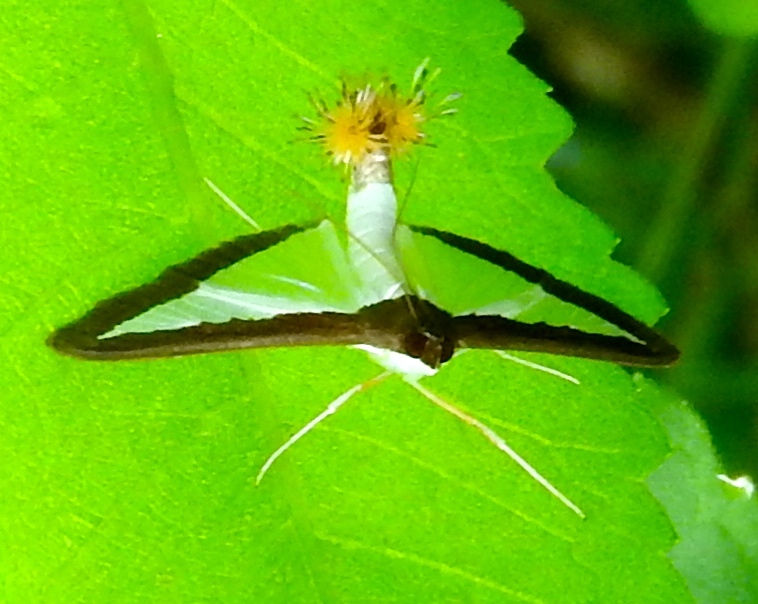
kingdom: Animalia
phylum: Arthropoda
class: Insecta
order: Lepidoptera
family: Crambidae
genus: Diaphania
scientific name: Diaphania hyalinata
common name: Melonworm
